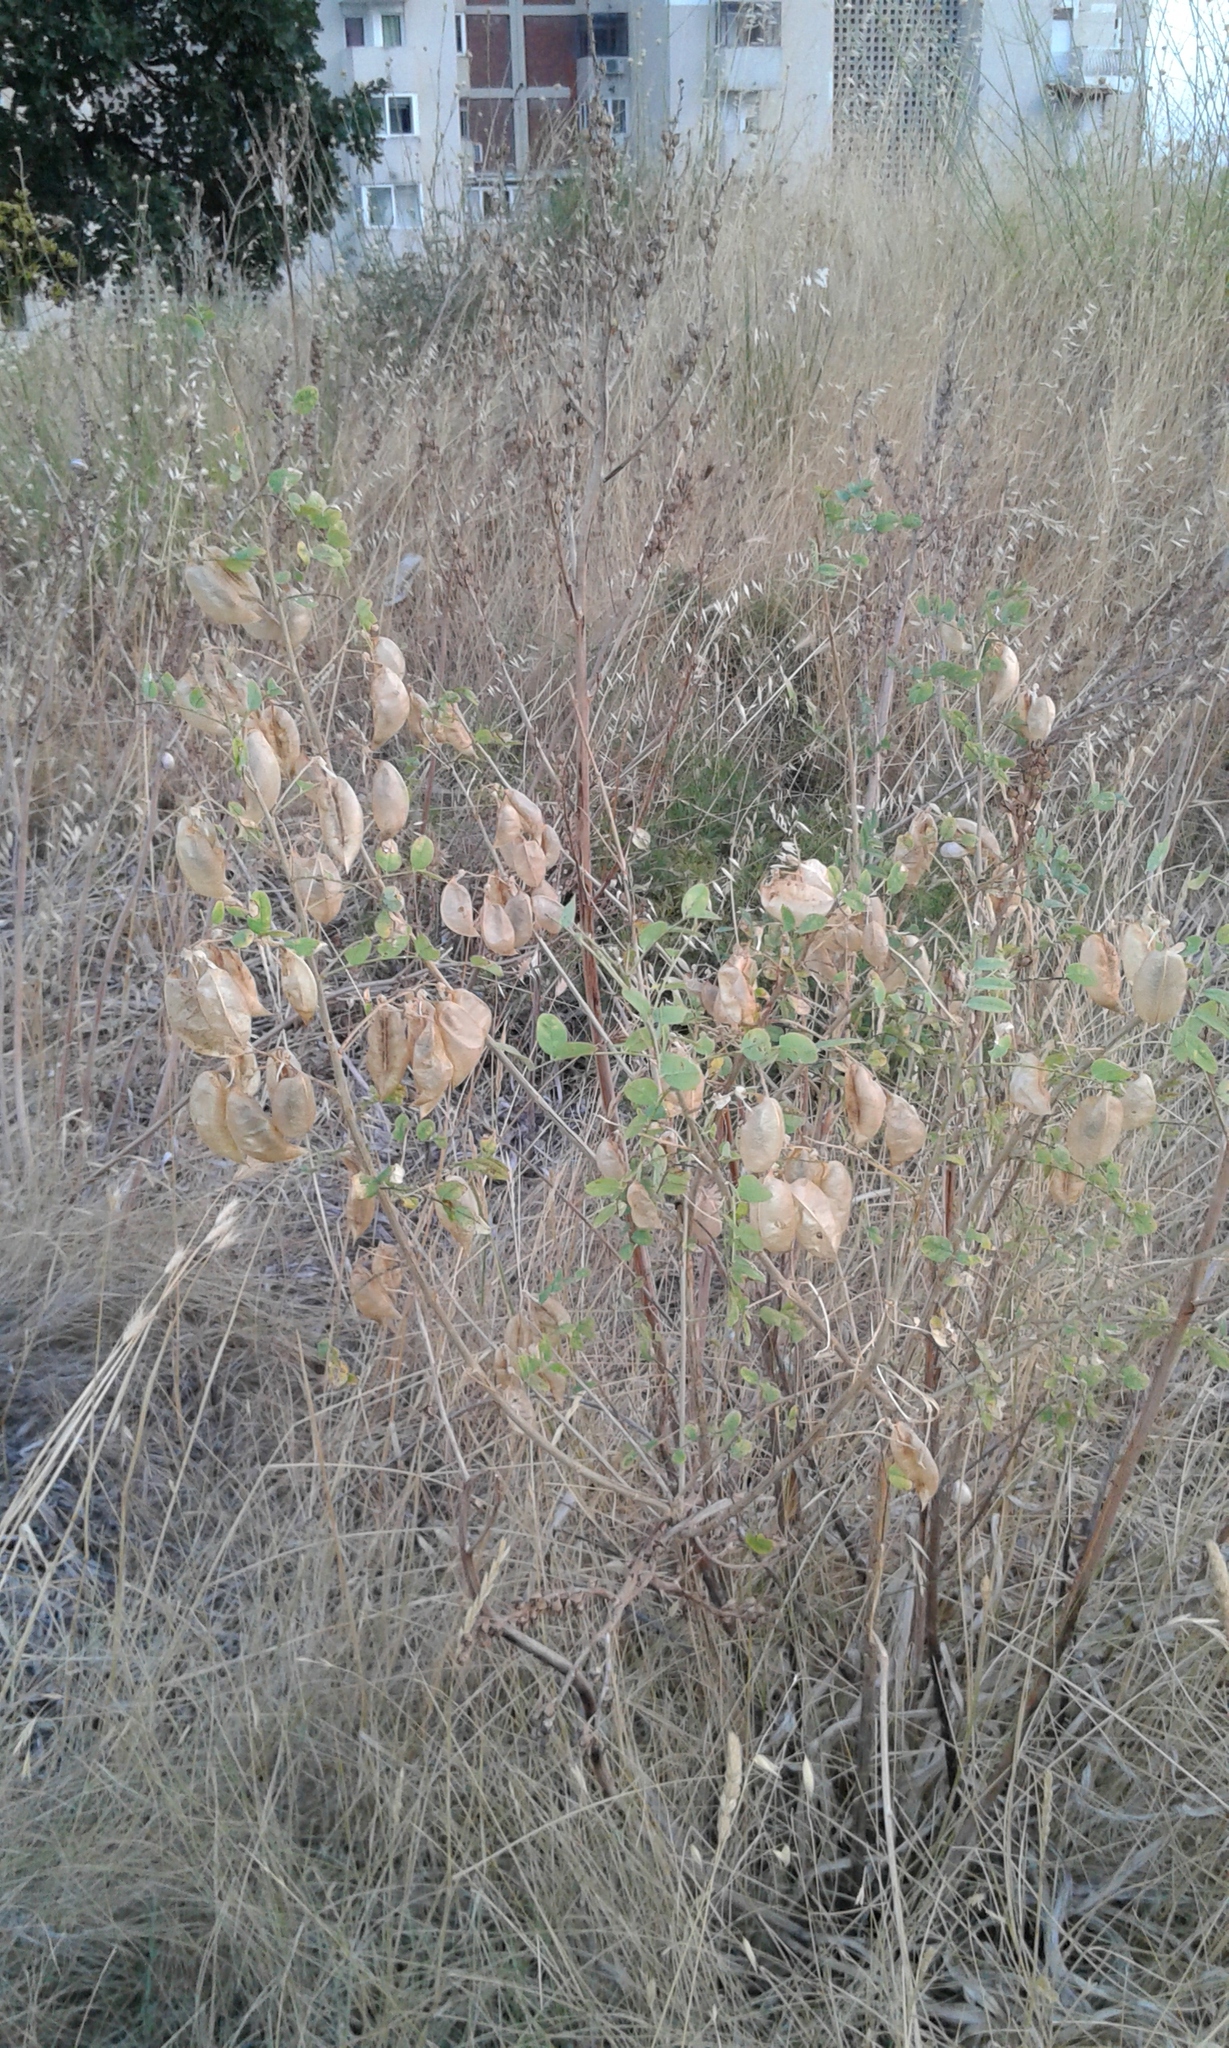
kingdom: Plantae
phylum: Tracheophyta
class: Magnoliopsida
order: Fabales
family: Fabaceae
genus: Colutea
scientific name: Colutea arborescens
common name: Bladder-senna
